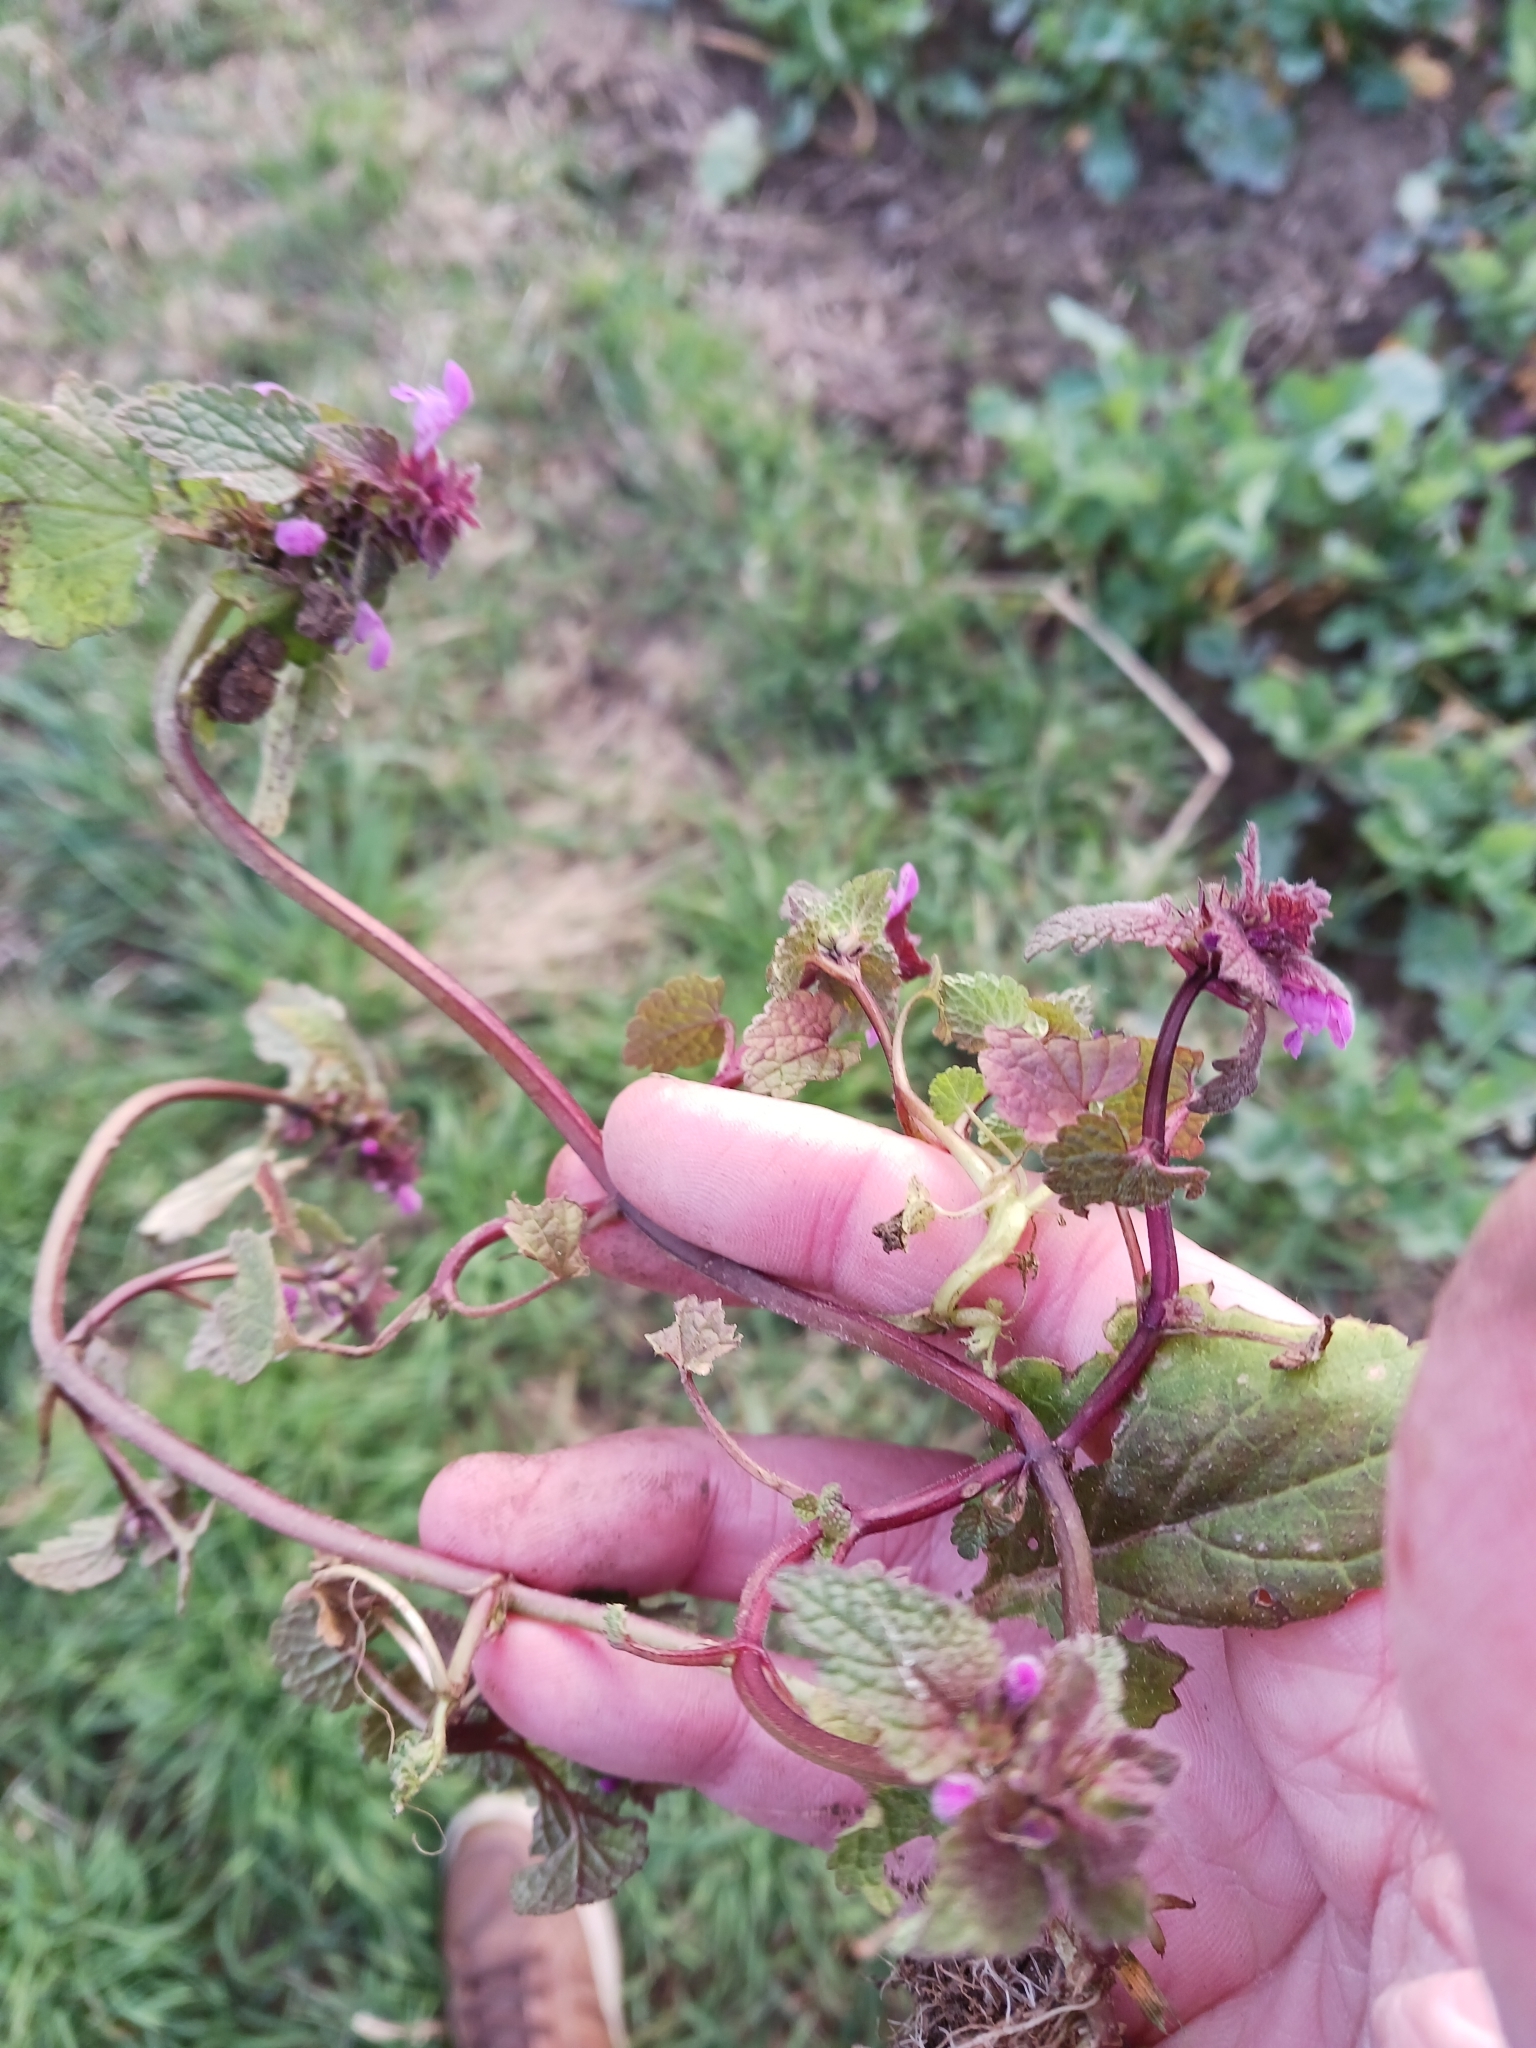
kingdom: Plantae
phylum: Tracheophyta
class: Magnoliopsida
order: Lamiales
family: Lamiaceae
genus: Lamium
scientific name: Lamium purpureum
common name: Red dead-nettle
